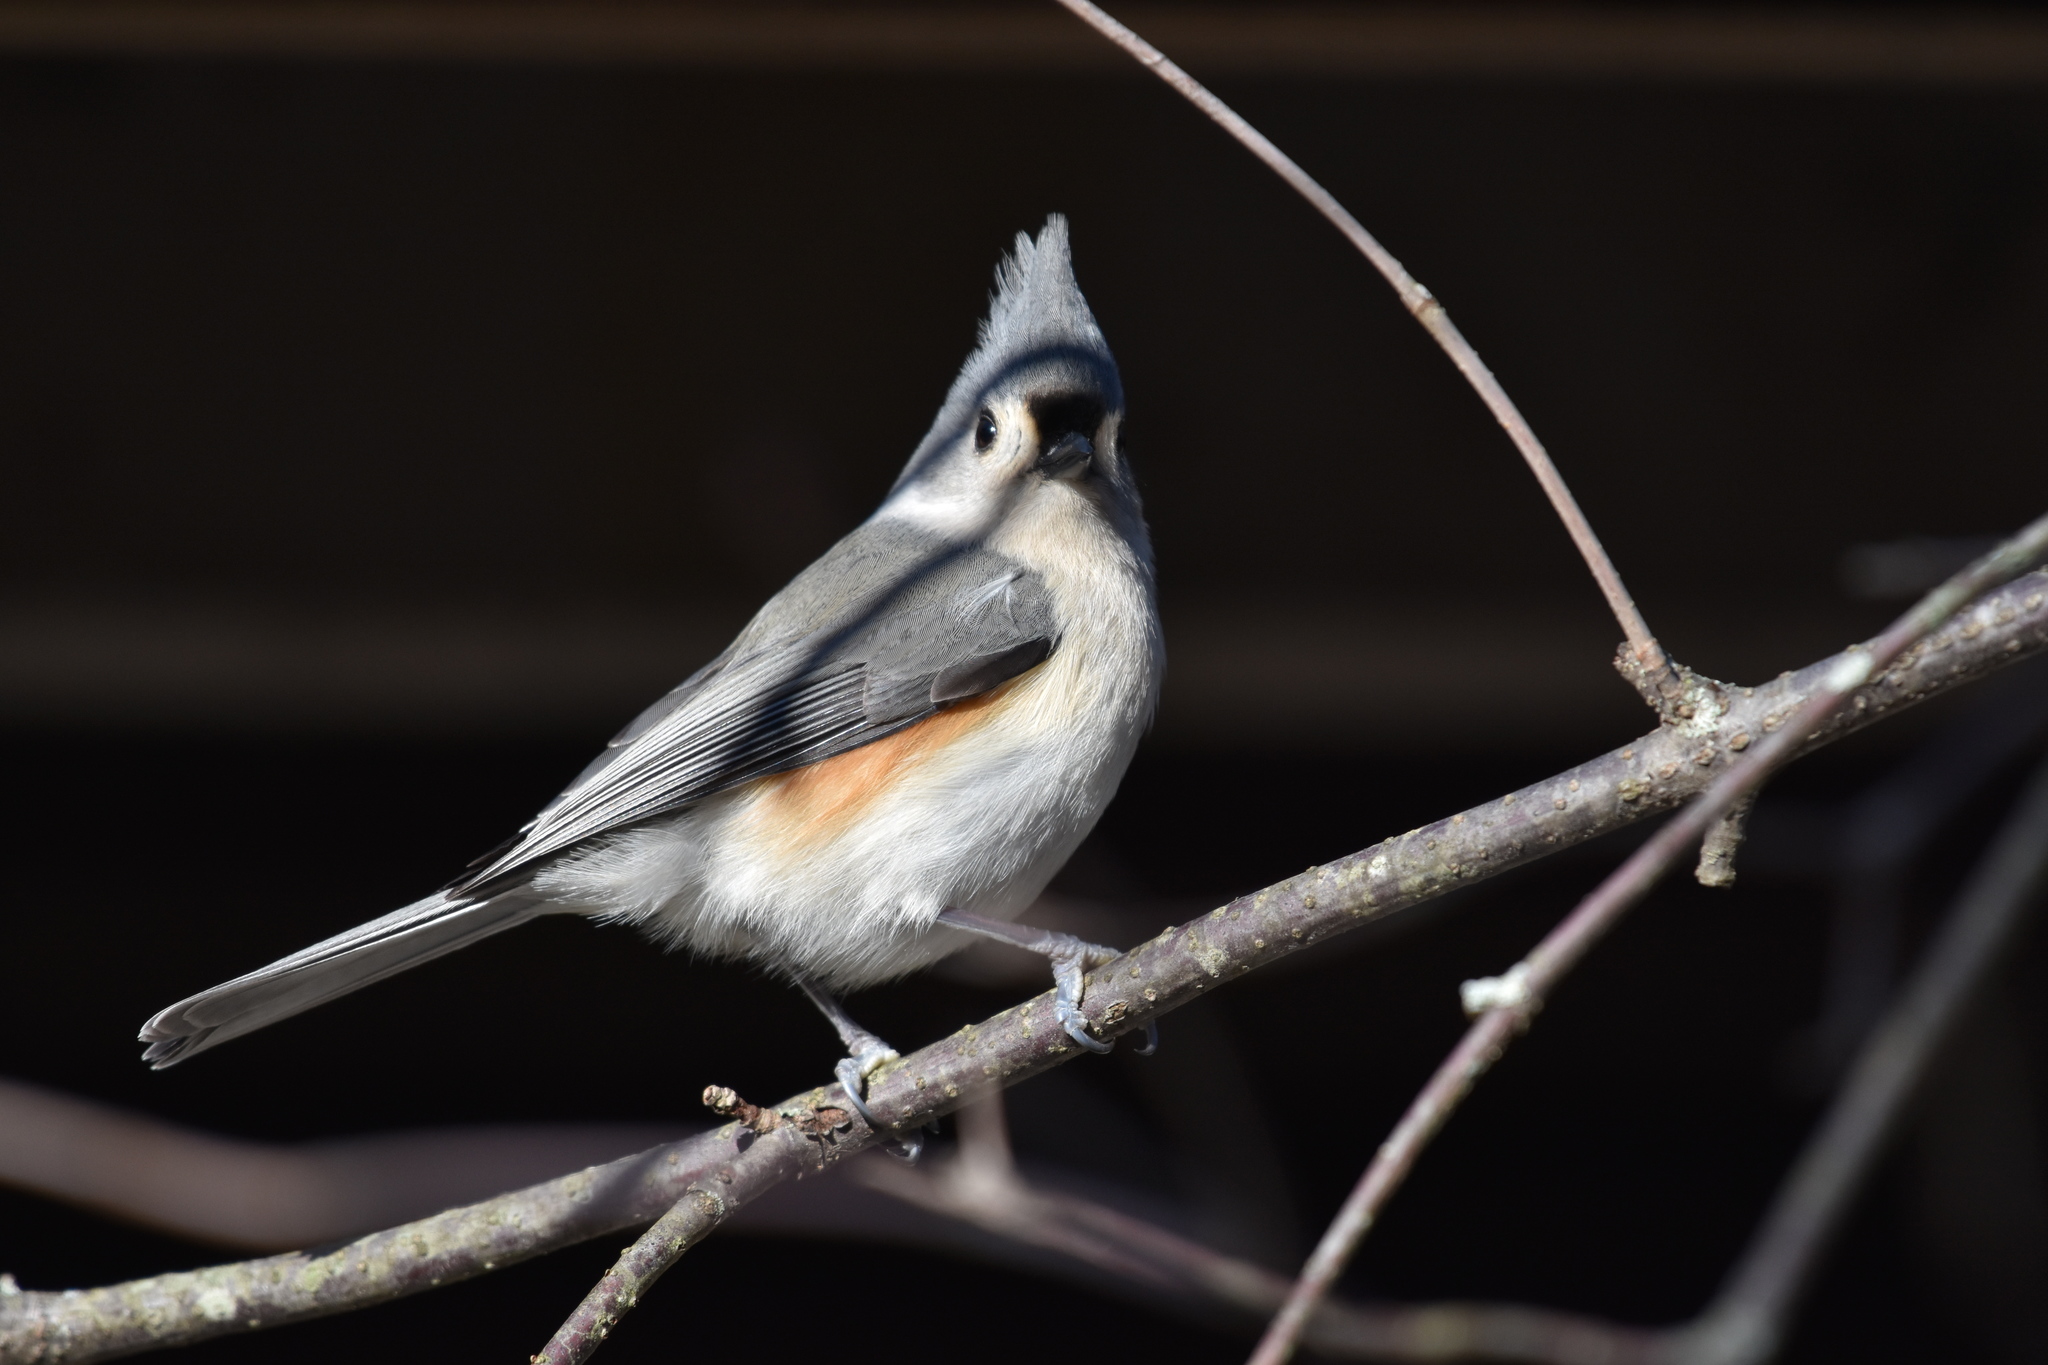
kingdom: Animalia
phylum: Chordata
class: Aves
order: Passeriformes
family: Paridae
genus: Baeolophus
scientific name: Baeolophus bicolor
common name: Tufted titmouse
